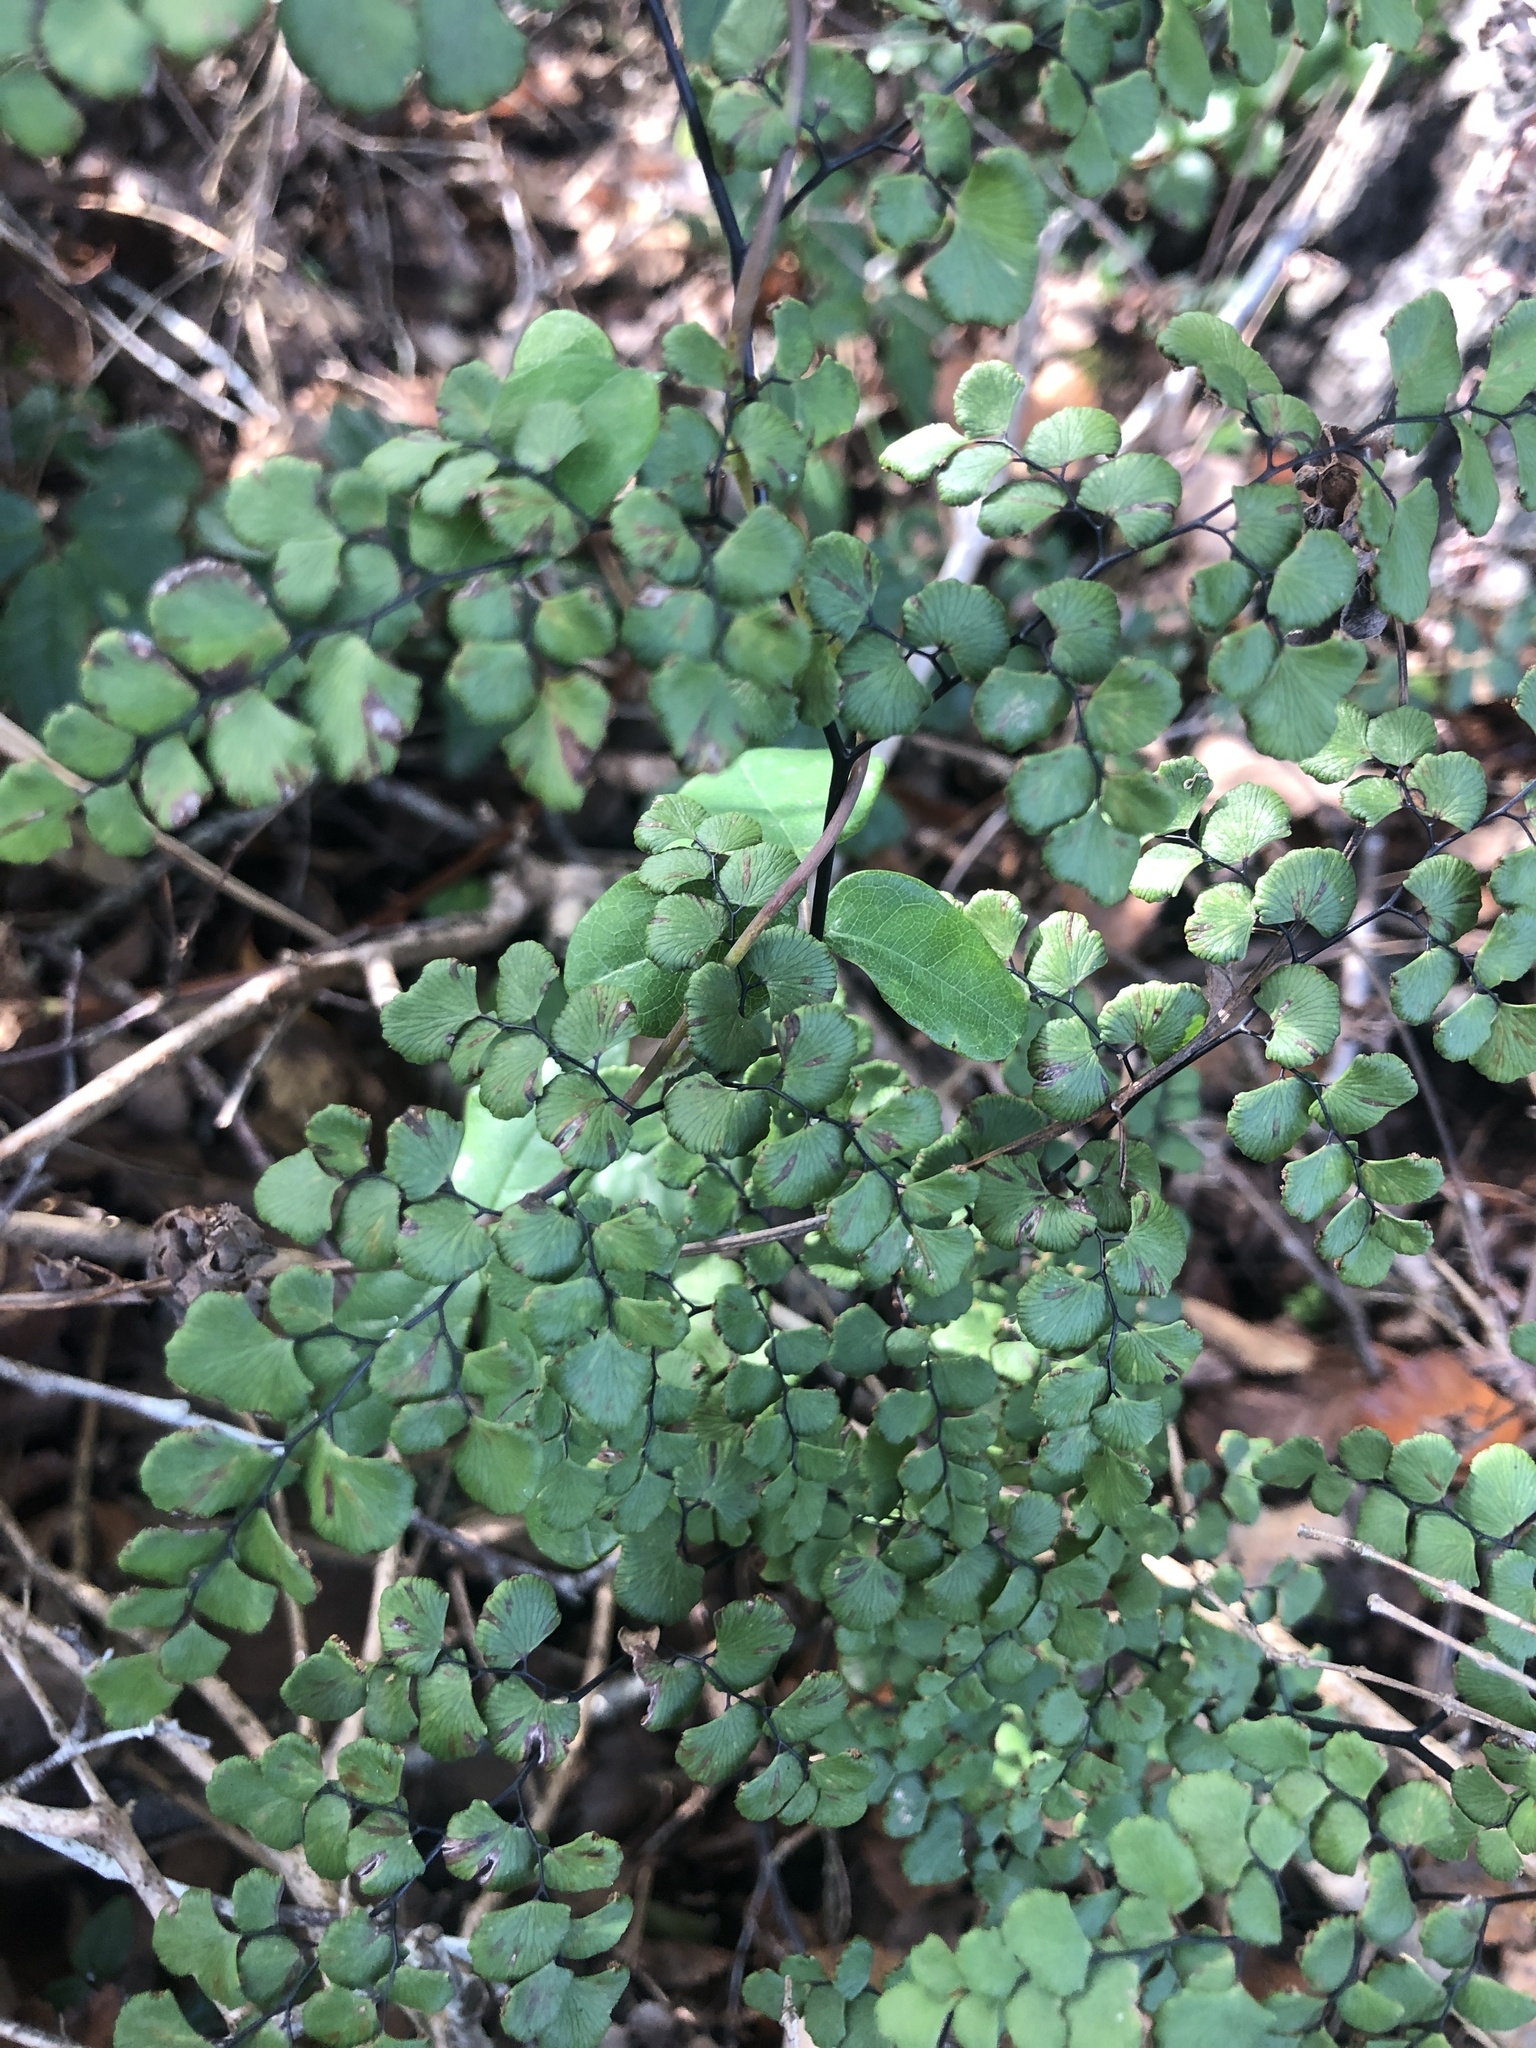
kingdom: Plantae
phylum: Tracheophyta
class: Polypodiopsida
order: Polypodiales
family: Pteridaceae
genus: Adiantum
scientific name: Adiantum chilense
